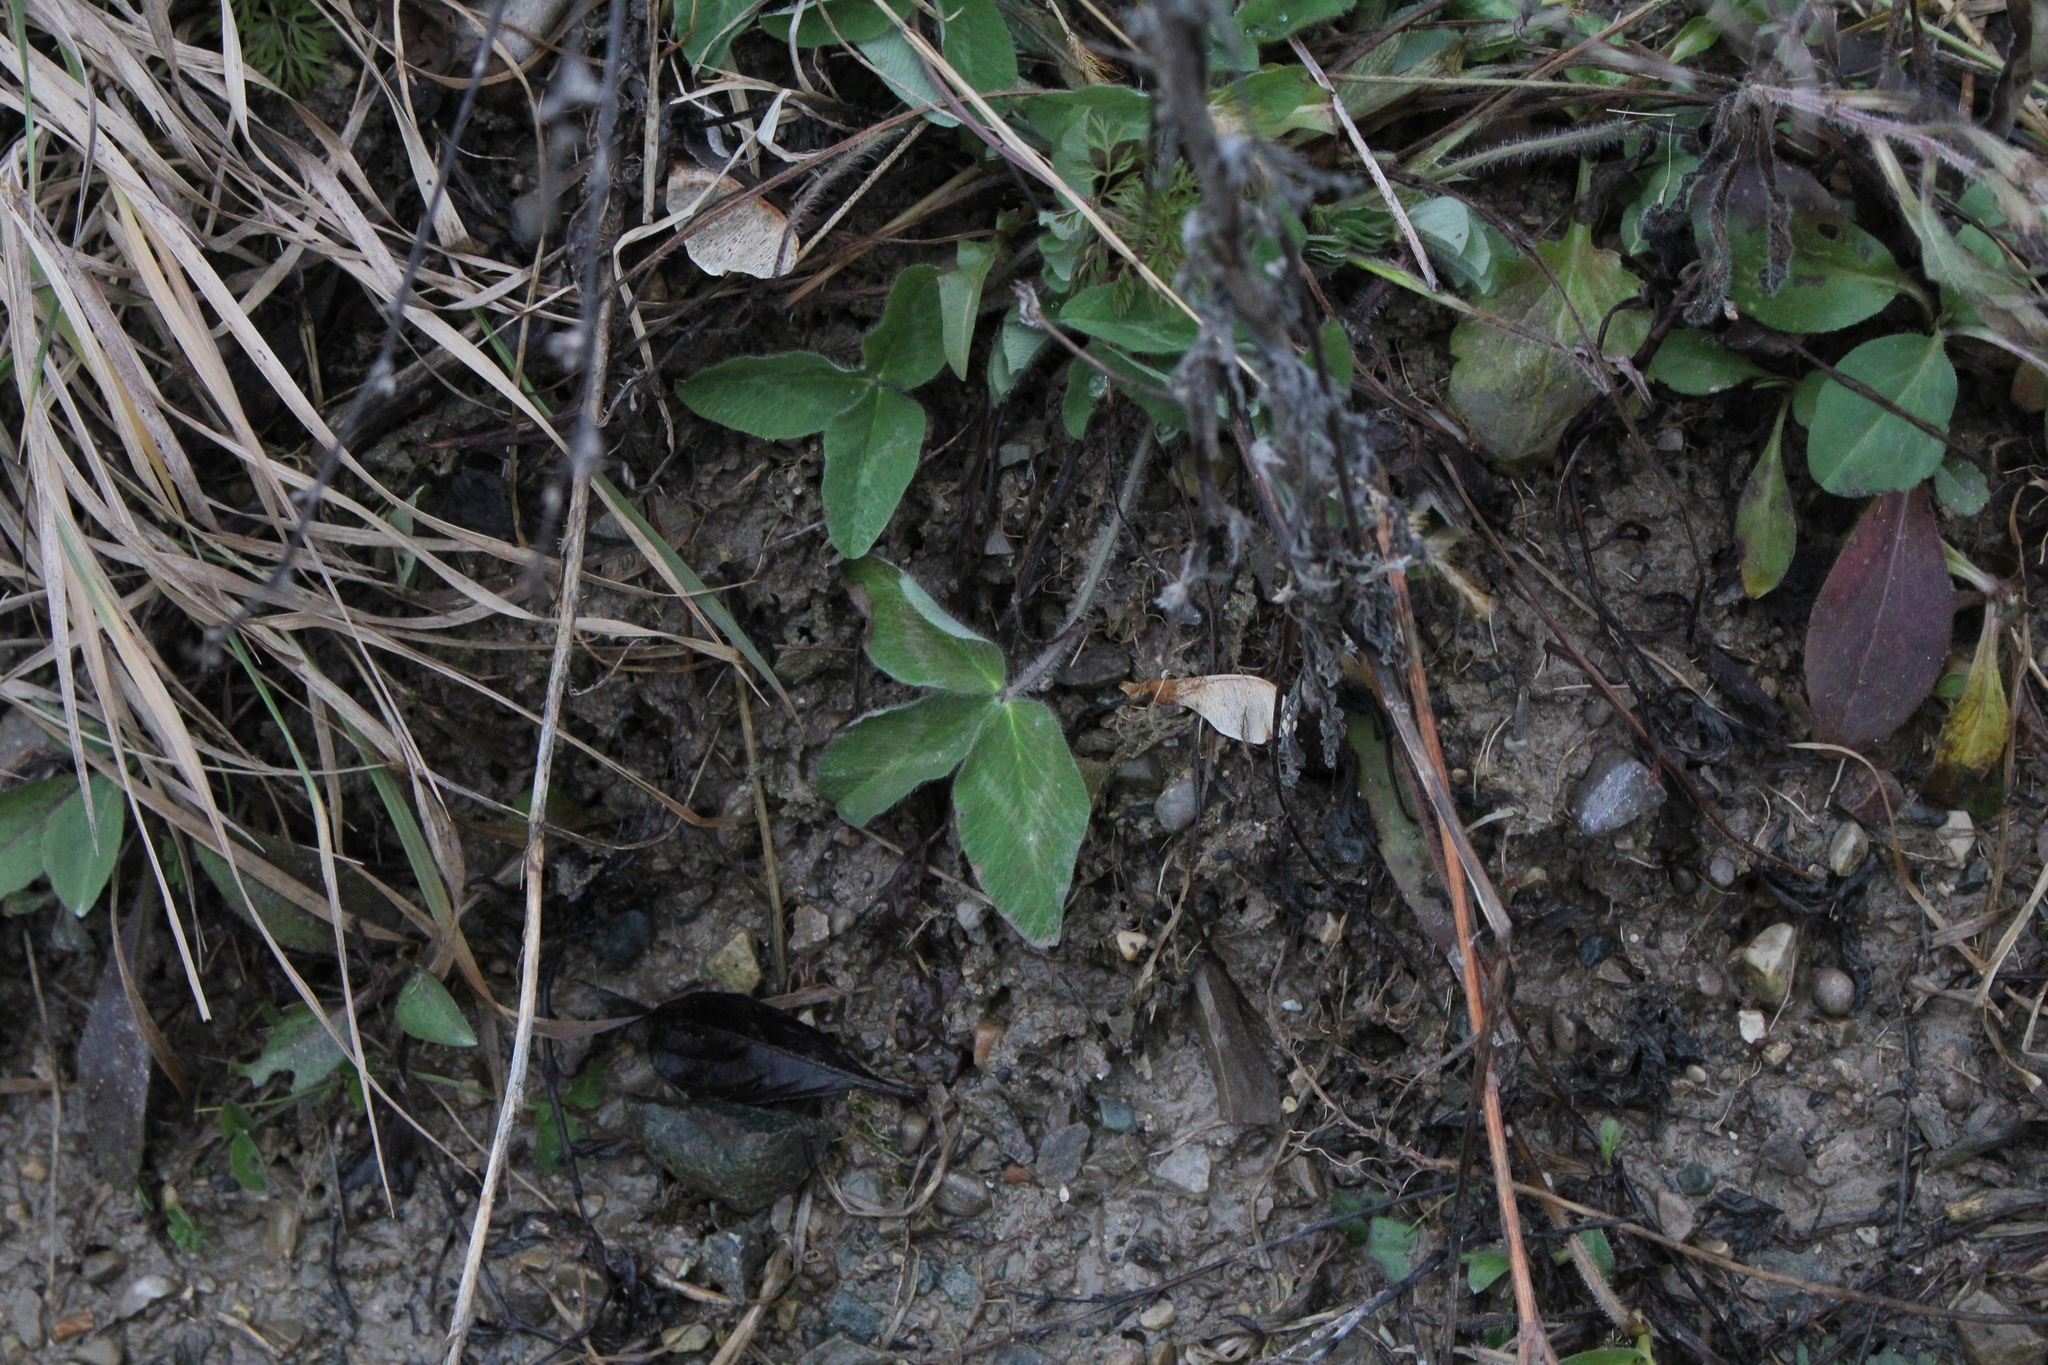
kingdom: Plantae
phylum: Tracheophyta
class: Magnoliopsida
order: Fabales
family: Fabaceae
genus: Trifolium
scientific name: Trifolium pratense
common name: Red clover
